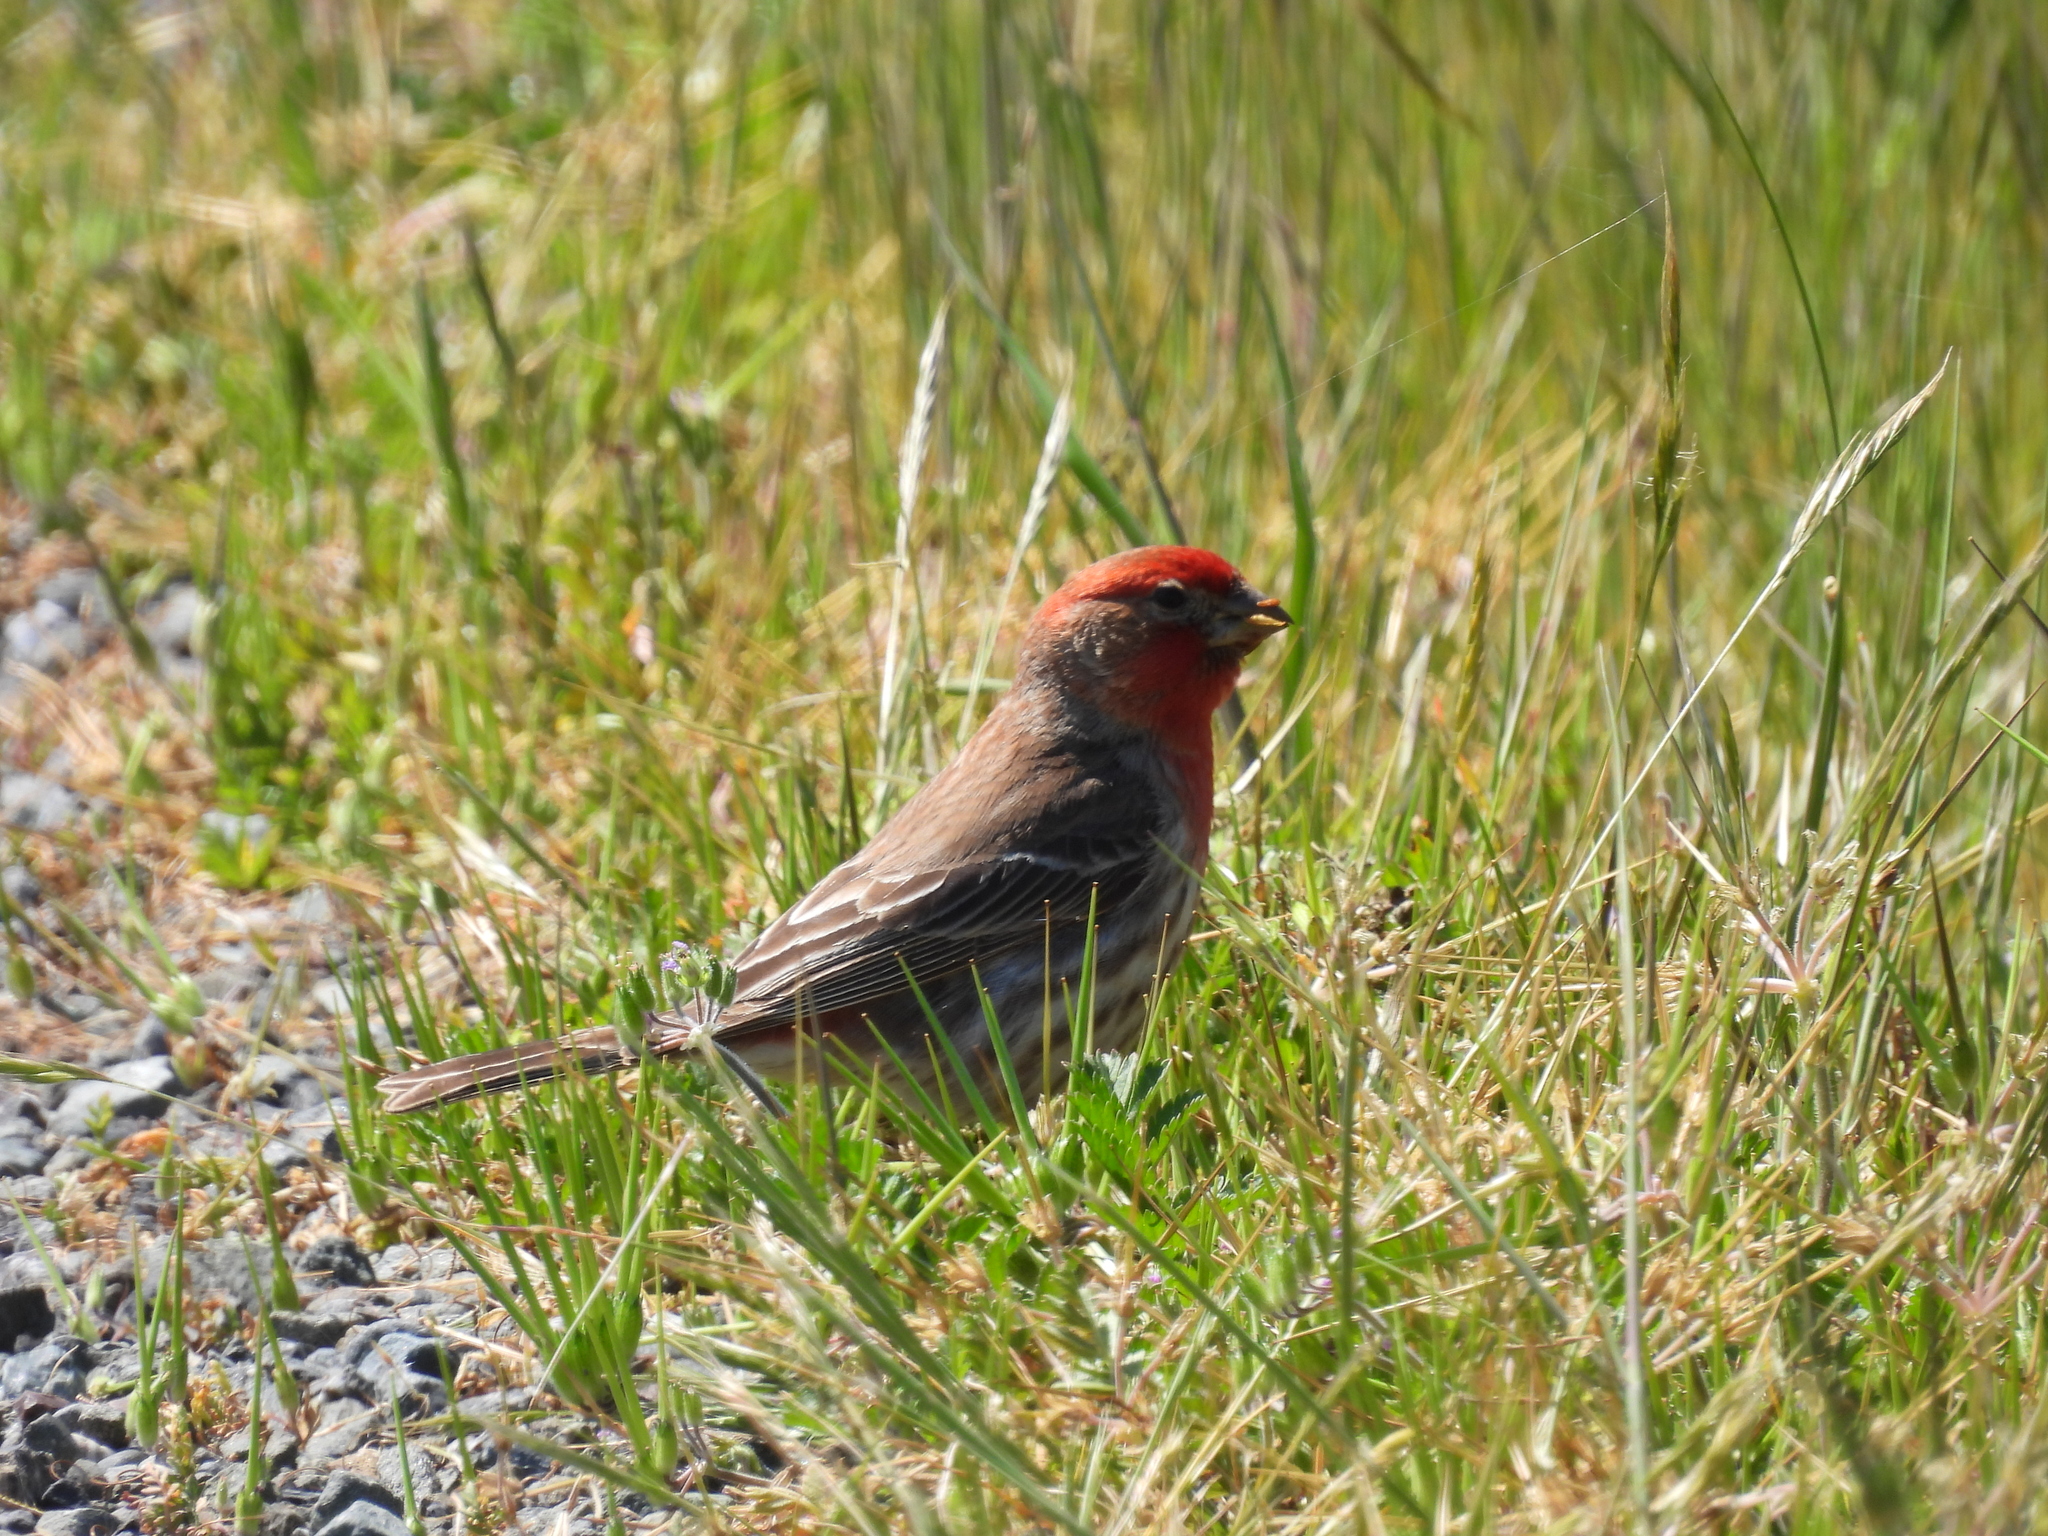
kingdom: Animalia
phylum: Chordata
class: Aves
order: Passeriformes
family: Fringillidae
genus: Haemorhous
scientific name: Haemorhous mexicanus
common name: House finch
